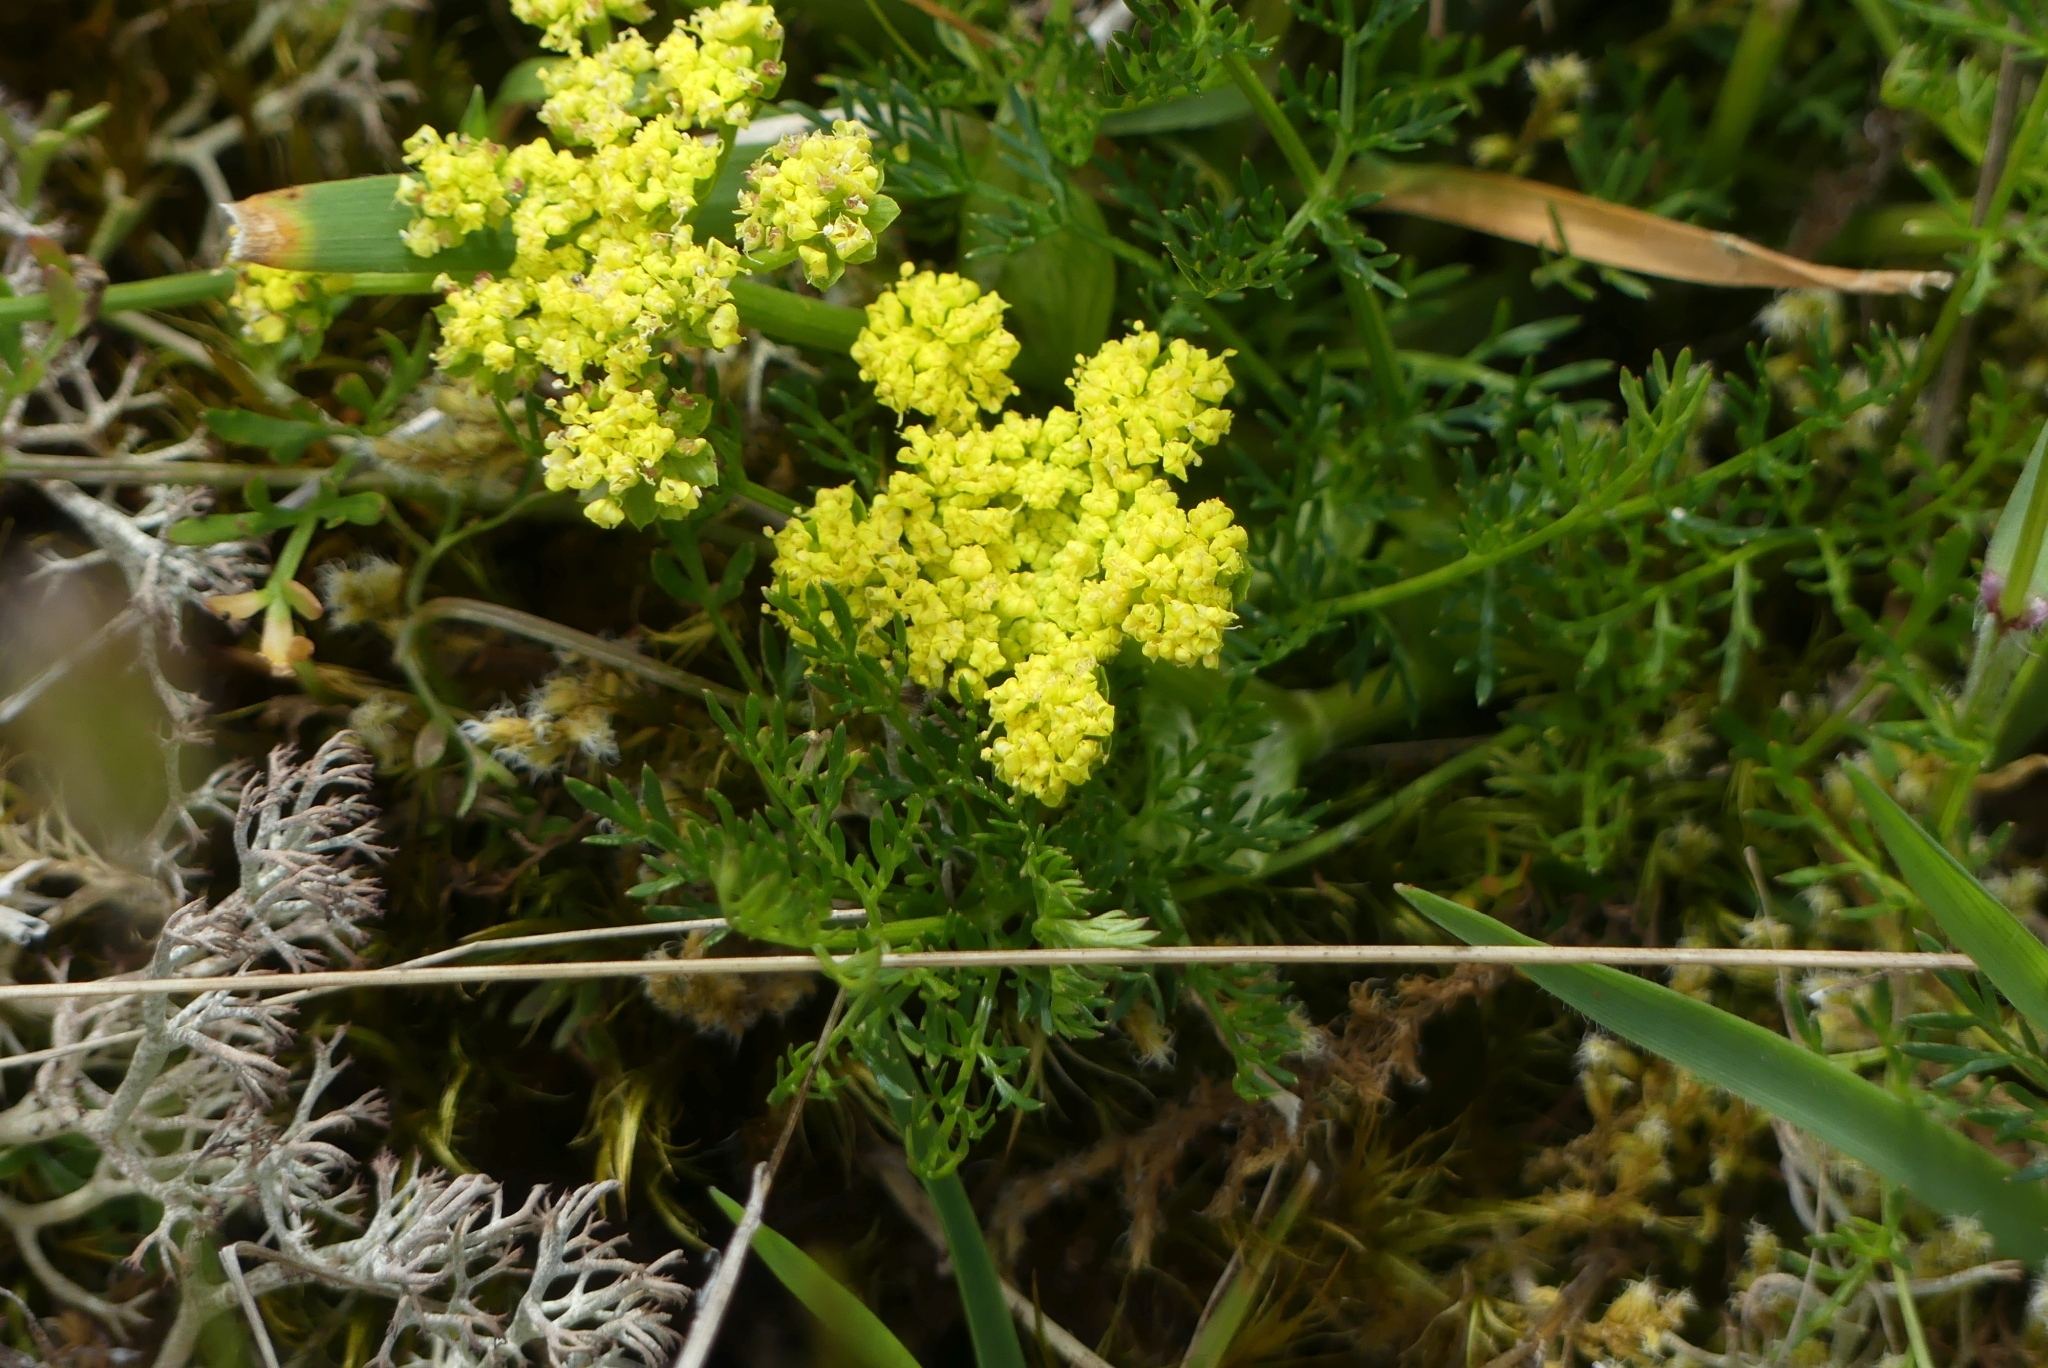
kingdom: Plantae
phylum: Tracheophyta
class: Magnoliopsida
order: Apiales
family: Apiaceae
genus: Lomatium
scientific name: Lomatium utriculatum
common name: Fine-leaf desert-parsley
